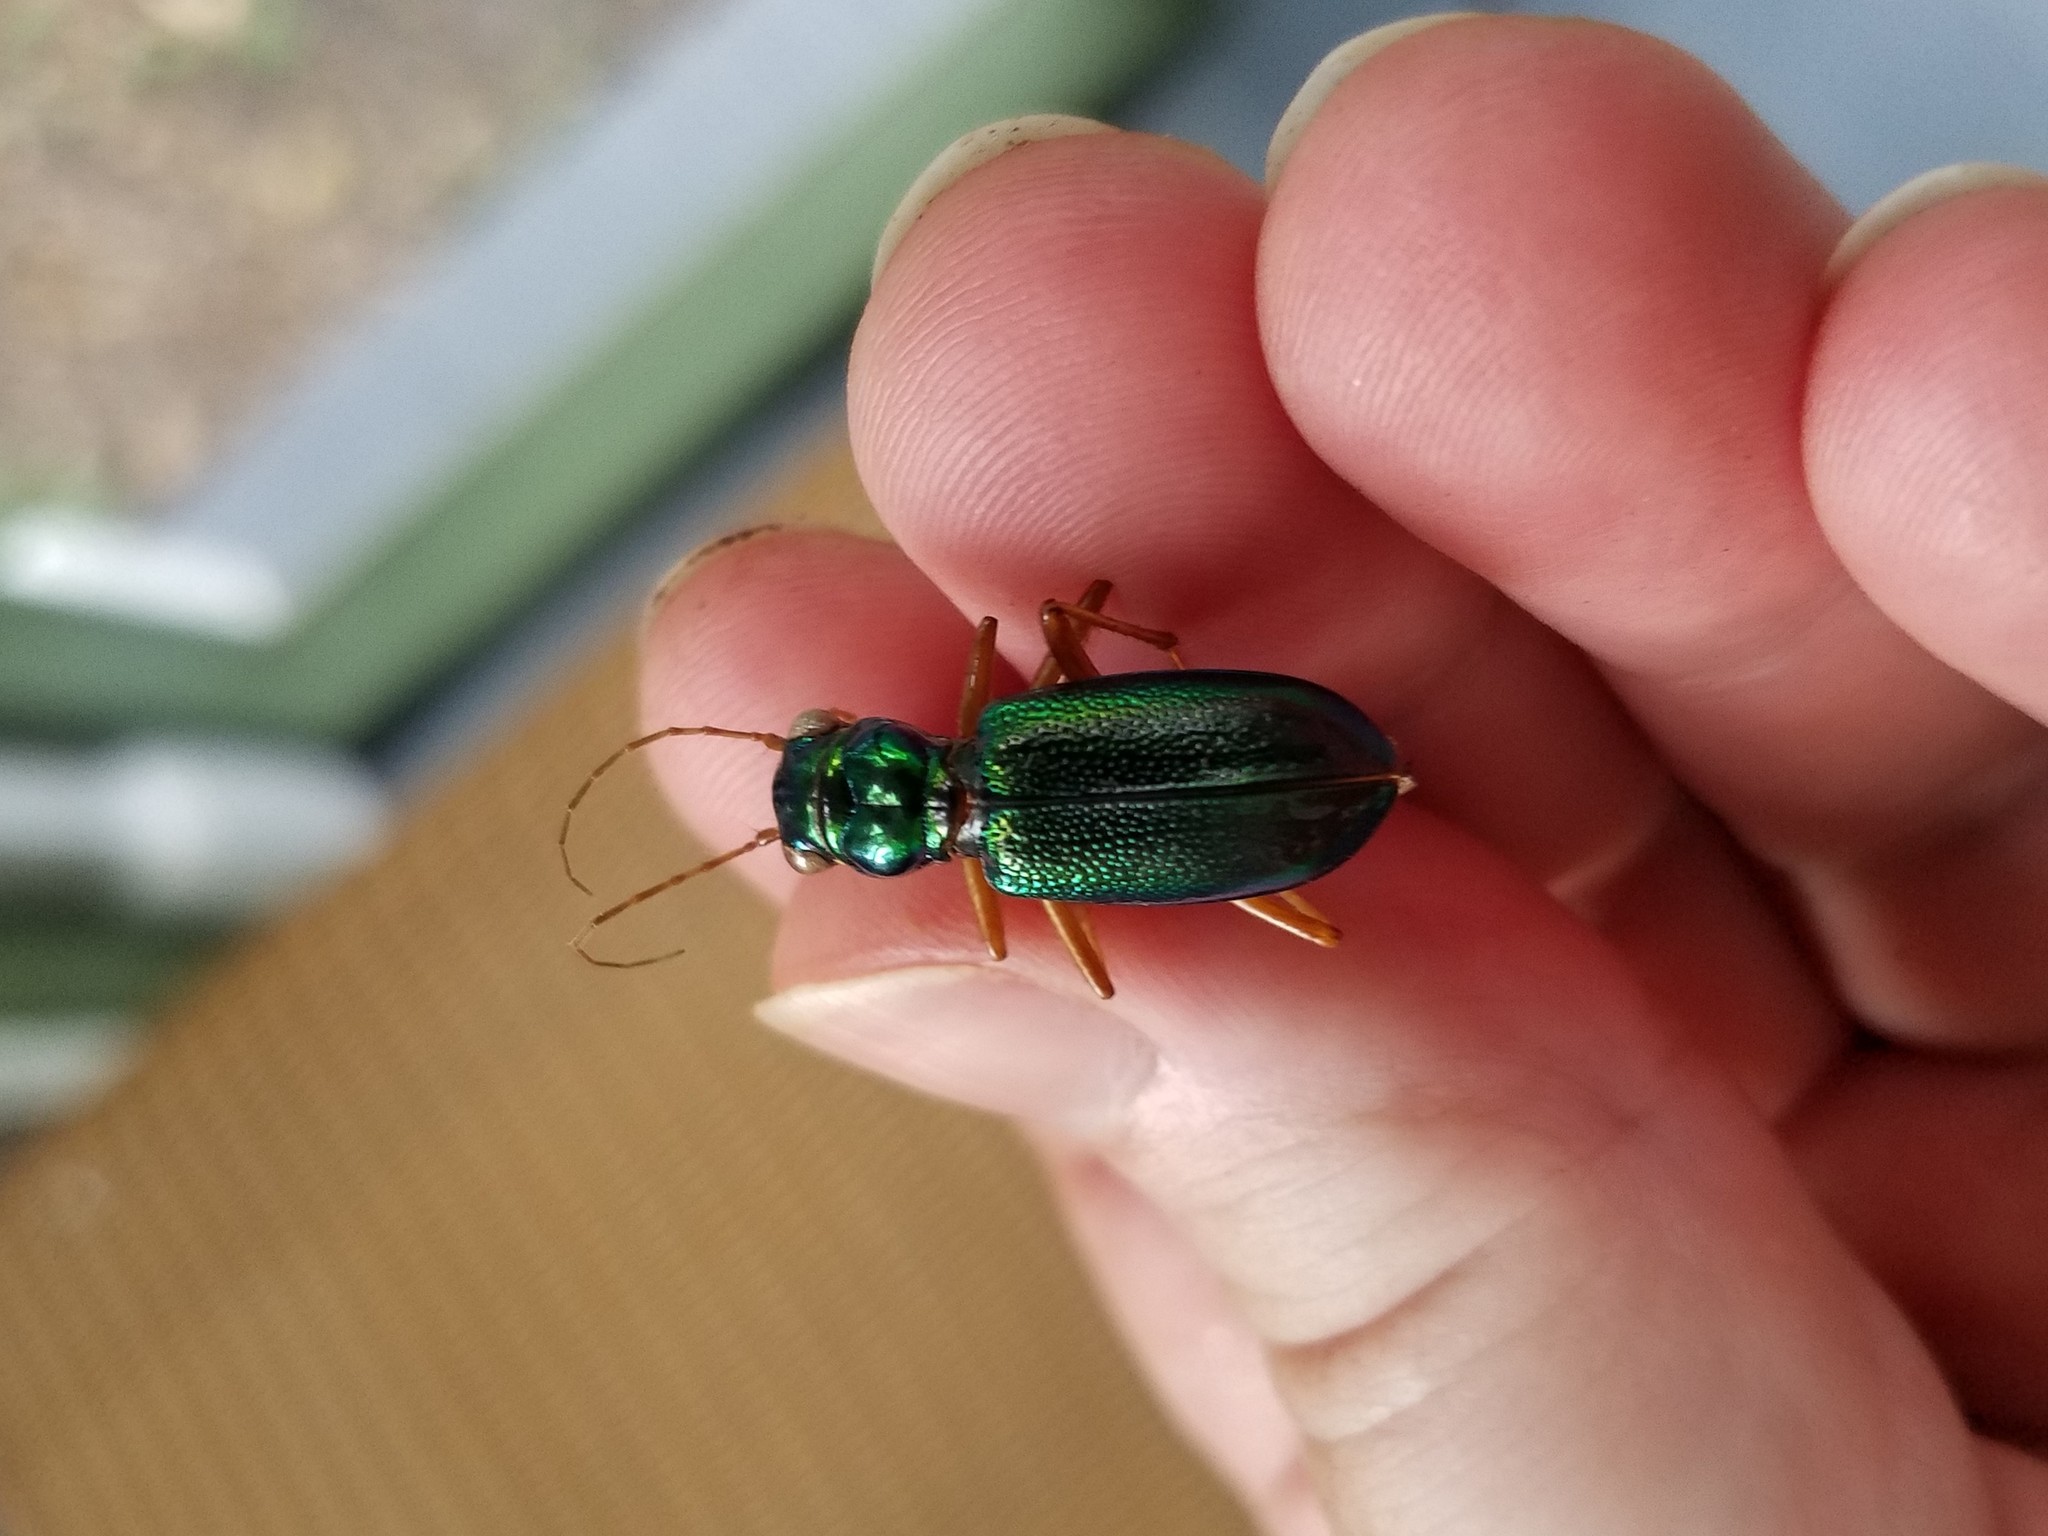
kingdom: Animalia
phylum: Arthropoda
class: Insecta
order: Coleoptera
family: Carabidae
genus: Tetracha
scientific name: Tetracha virginica
